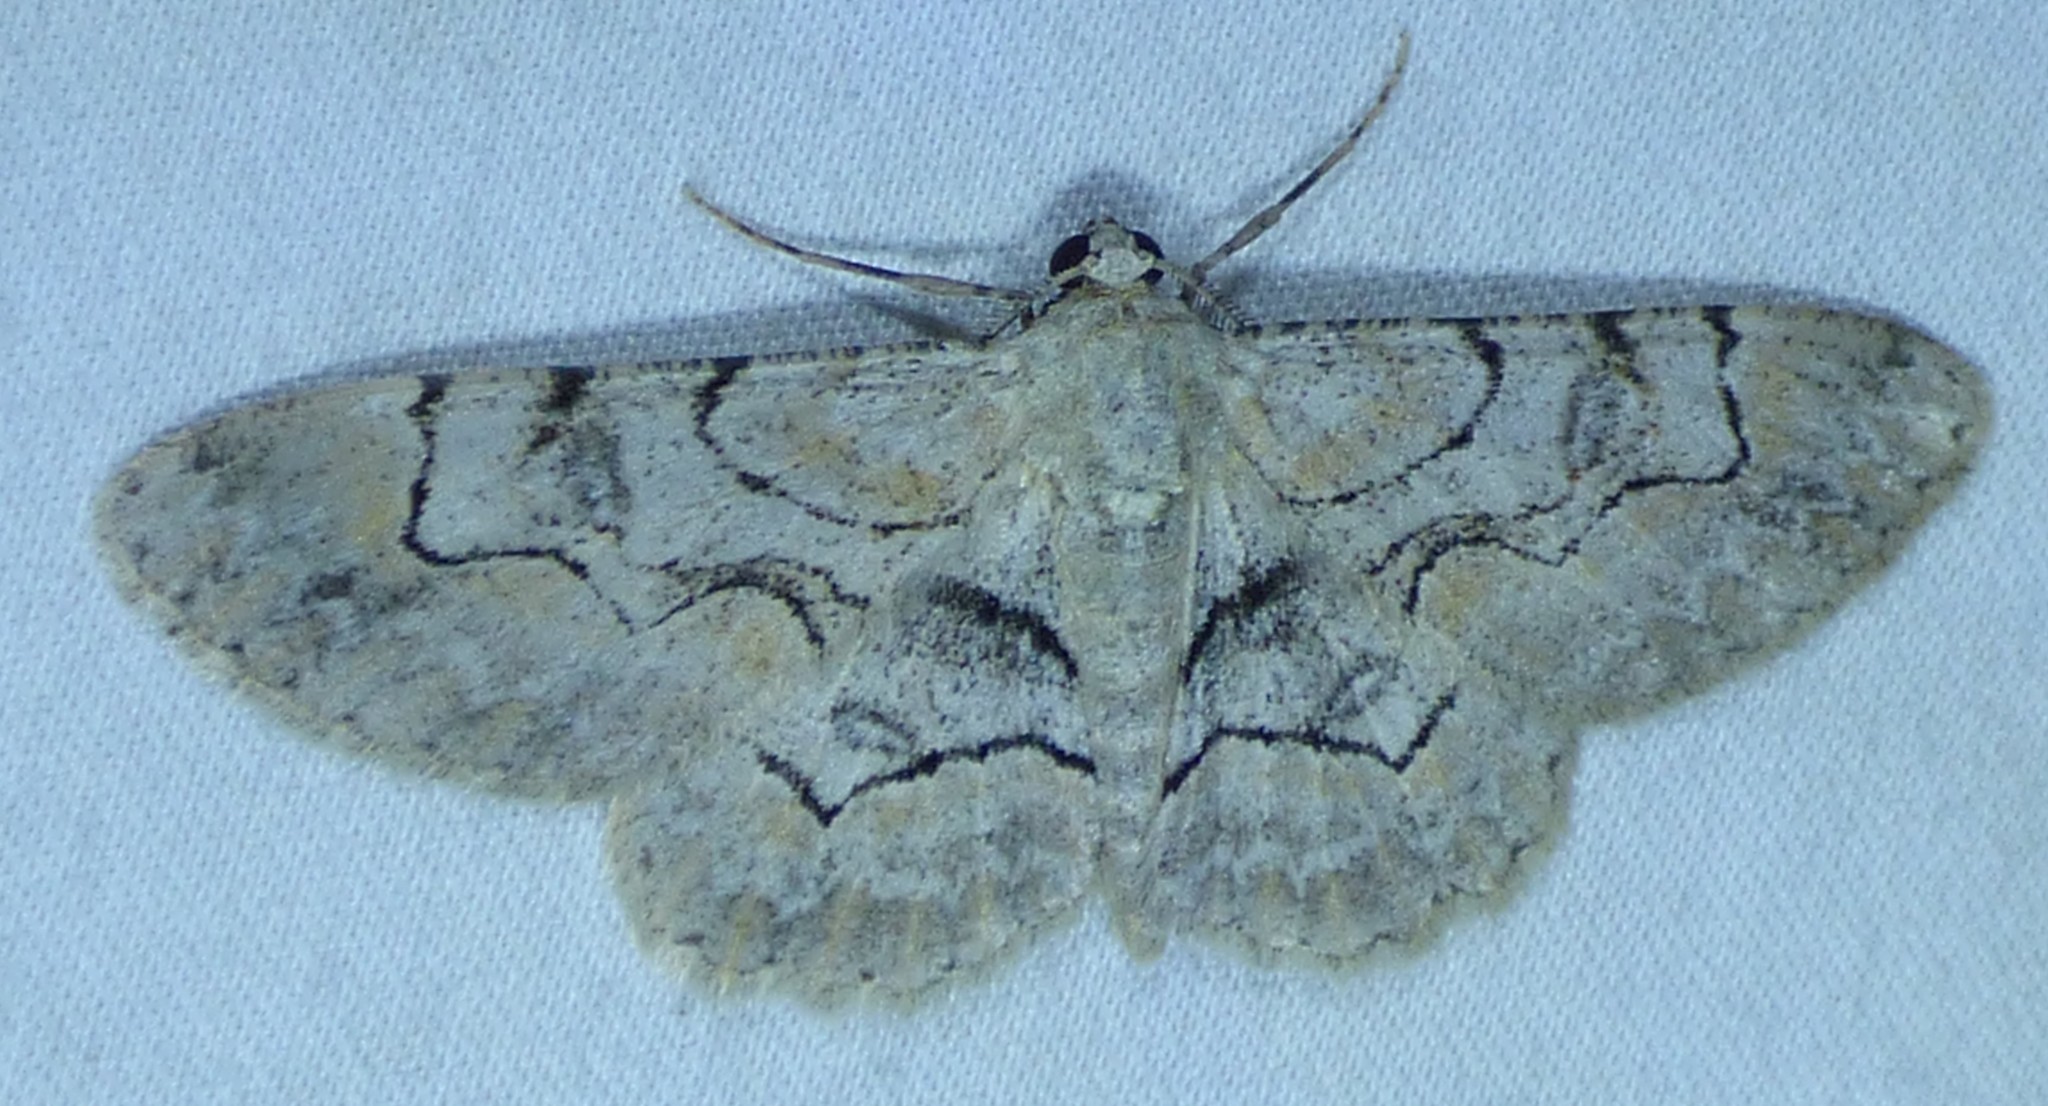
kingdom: Animalia
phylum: Arthropoda
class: Insecta
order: Lepidoptera
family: Geometridae
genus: Iridopsis
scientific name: Iridopsis larvaria
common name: Bent-line gray
